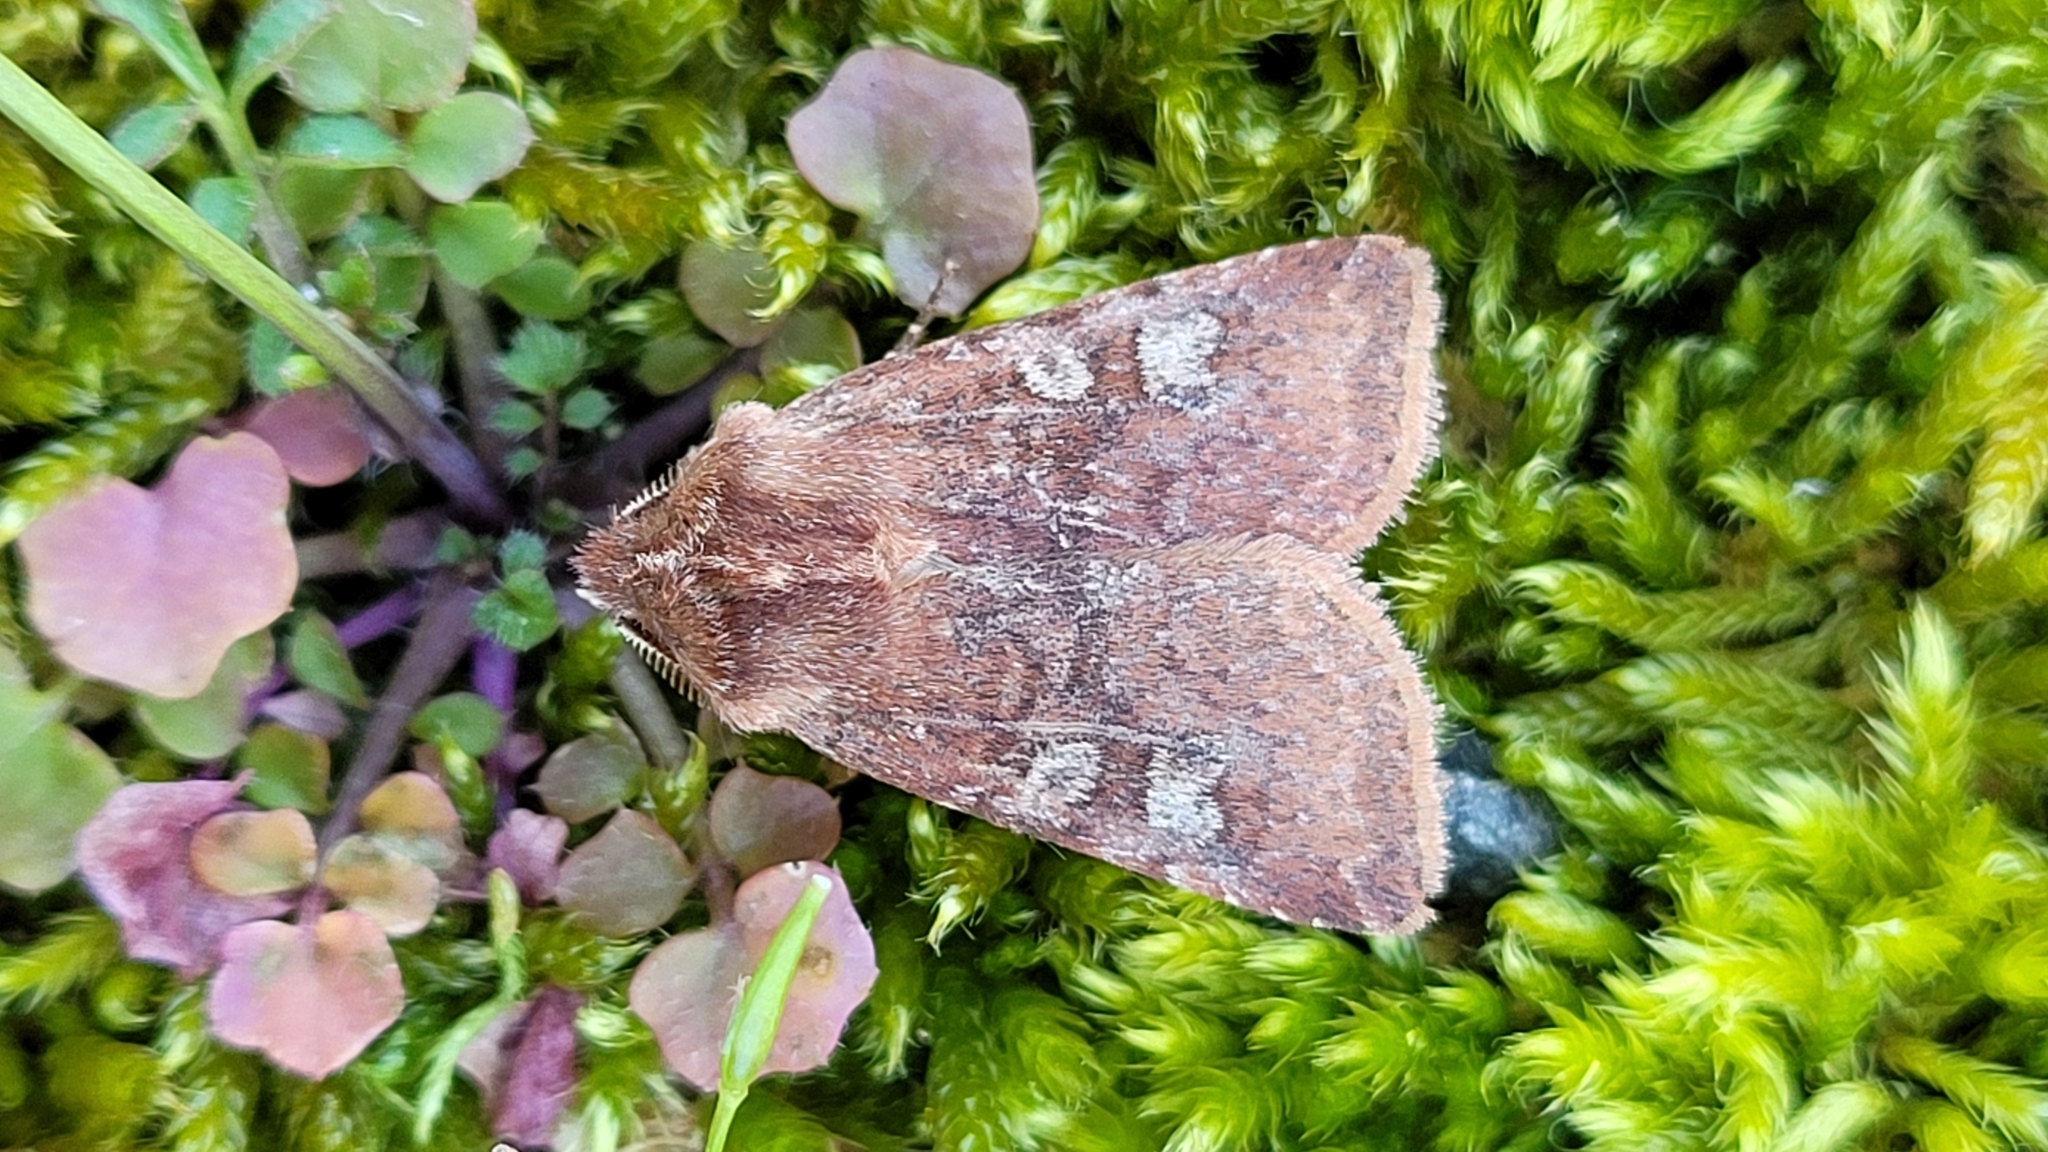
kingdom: Animalia
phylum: Arthropoda
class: Insecta
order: Lepidoptera
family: Noctuidae
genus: Cerastis
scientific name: Cerastis leucographa
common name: White-marked
